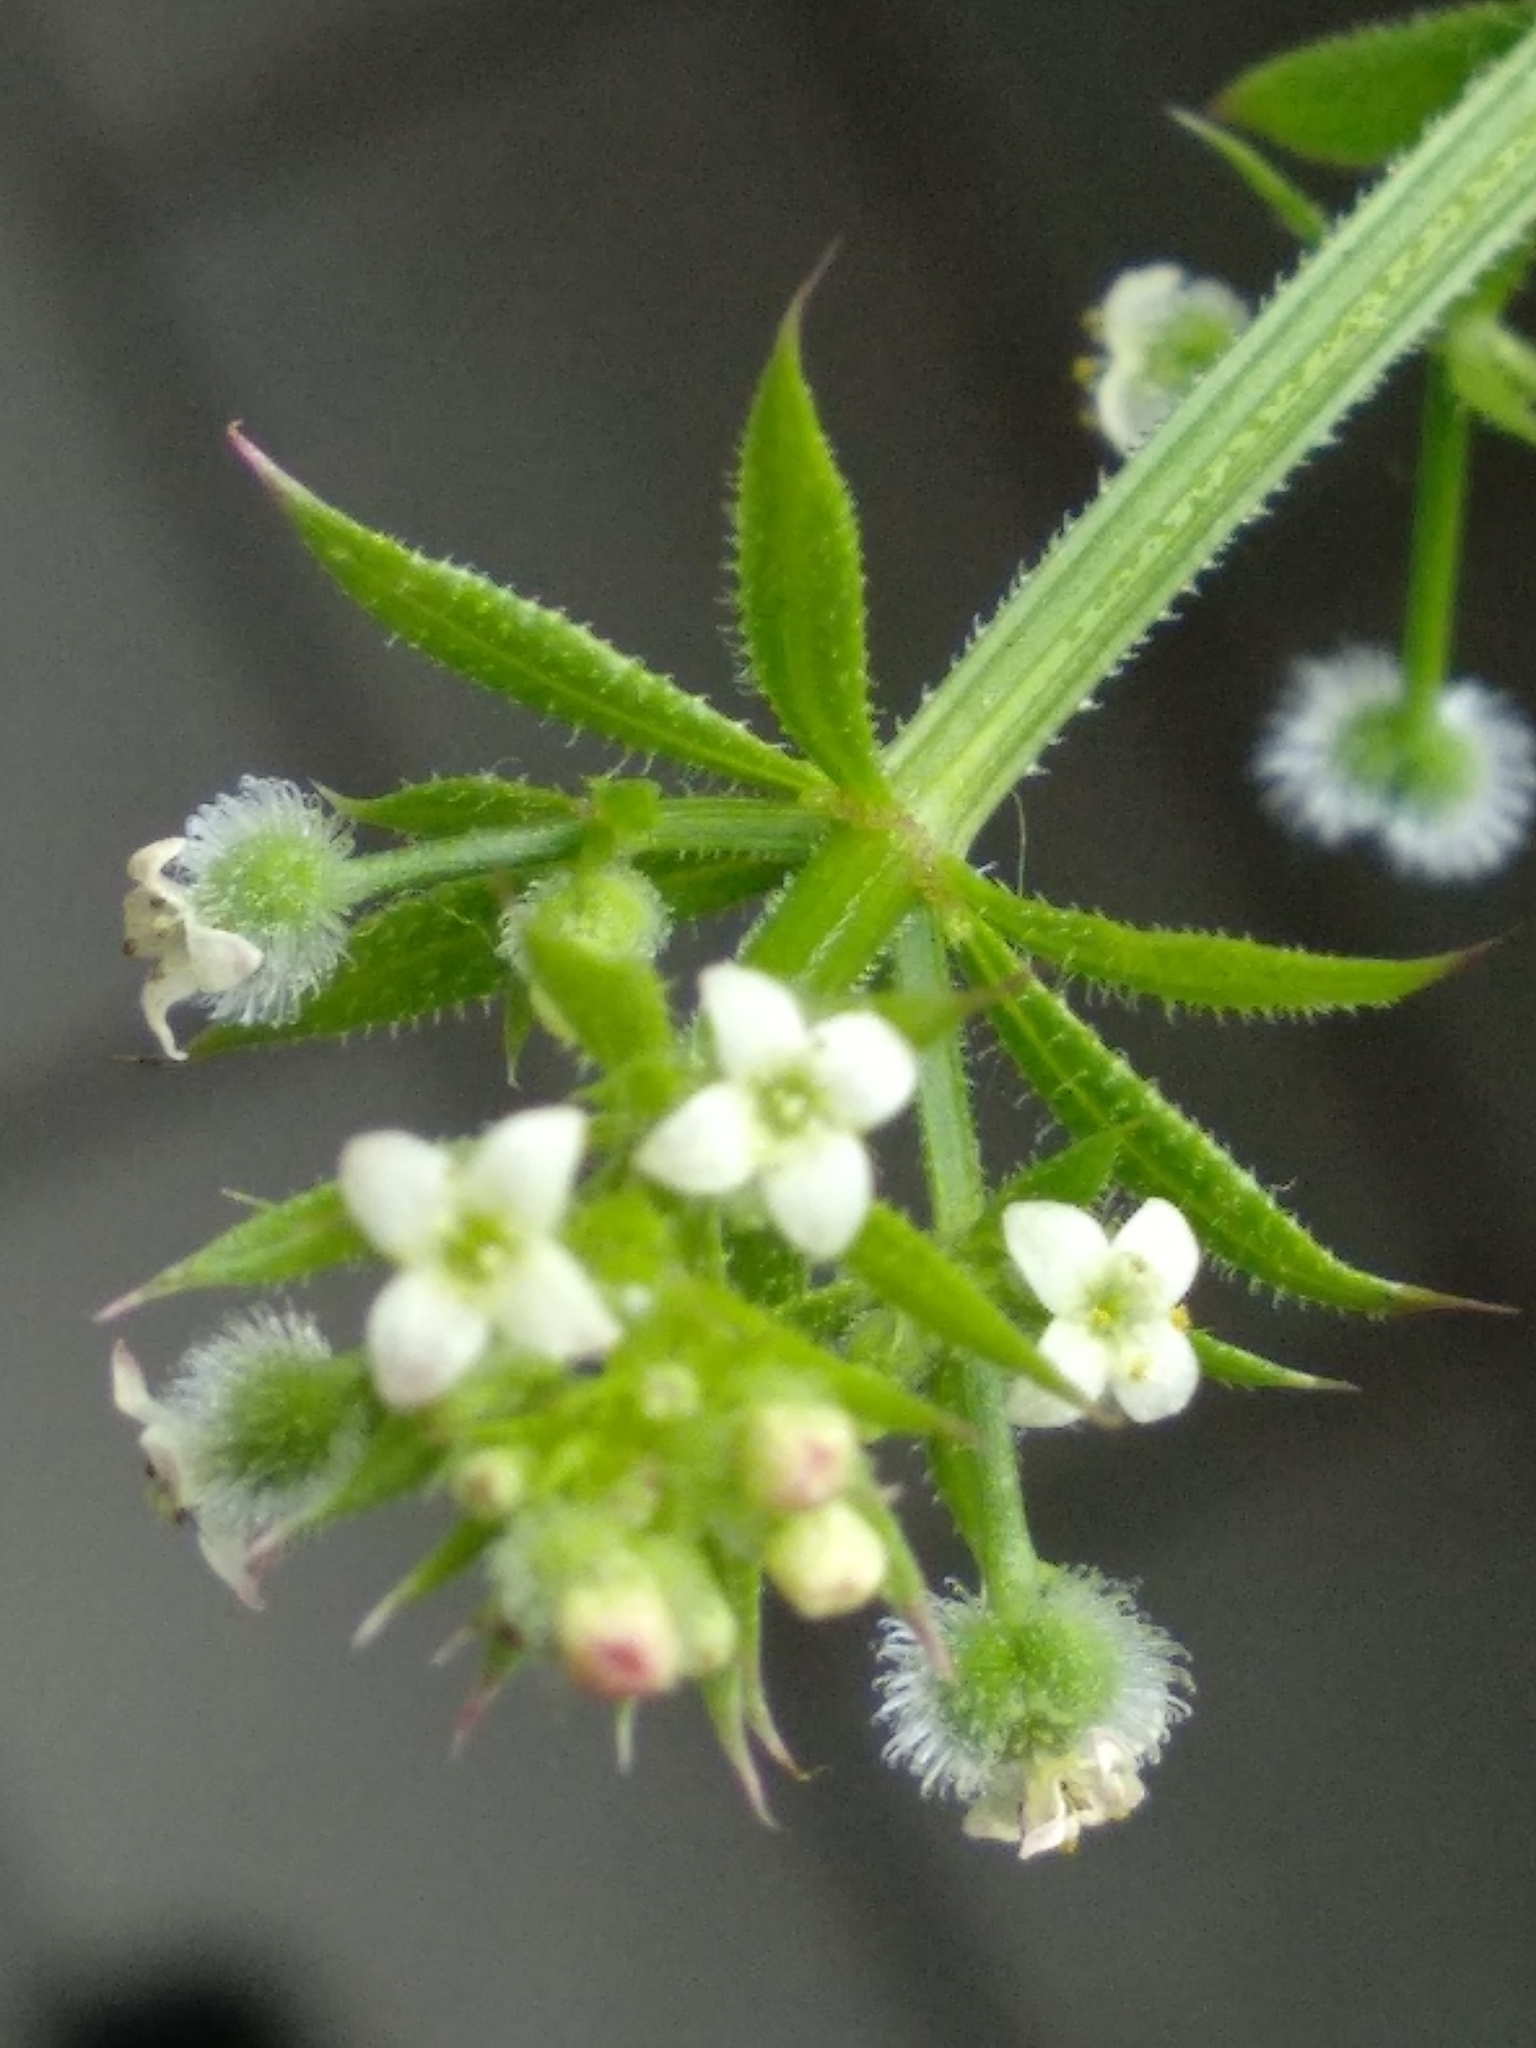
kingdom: Plantae
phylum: Tracheophyta
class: Magnoliopsida
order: Gentianales
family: Rubiaceae
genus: Galium
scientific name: Galium aparine
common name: Cleavers
